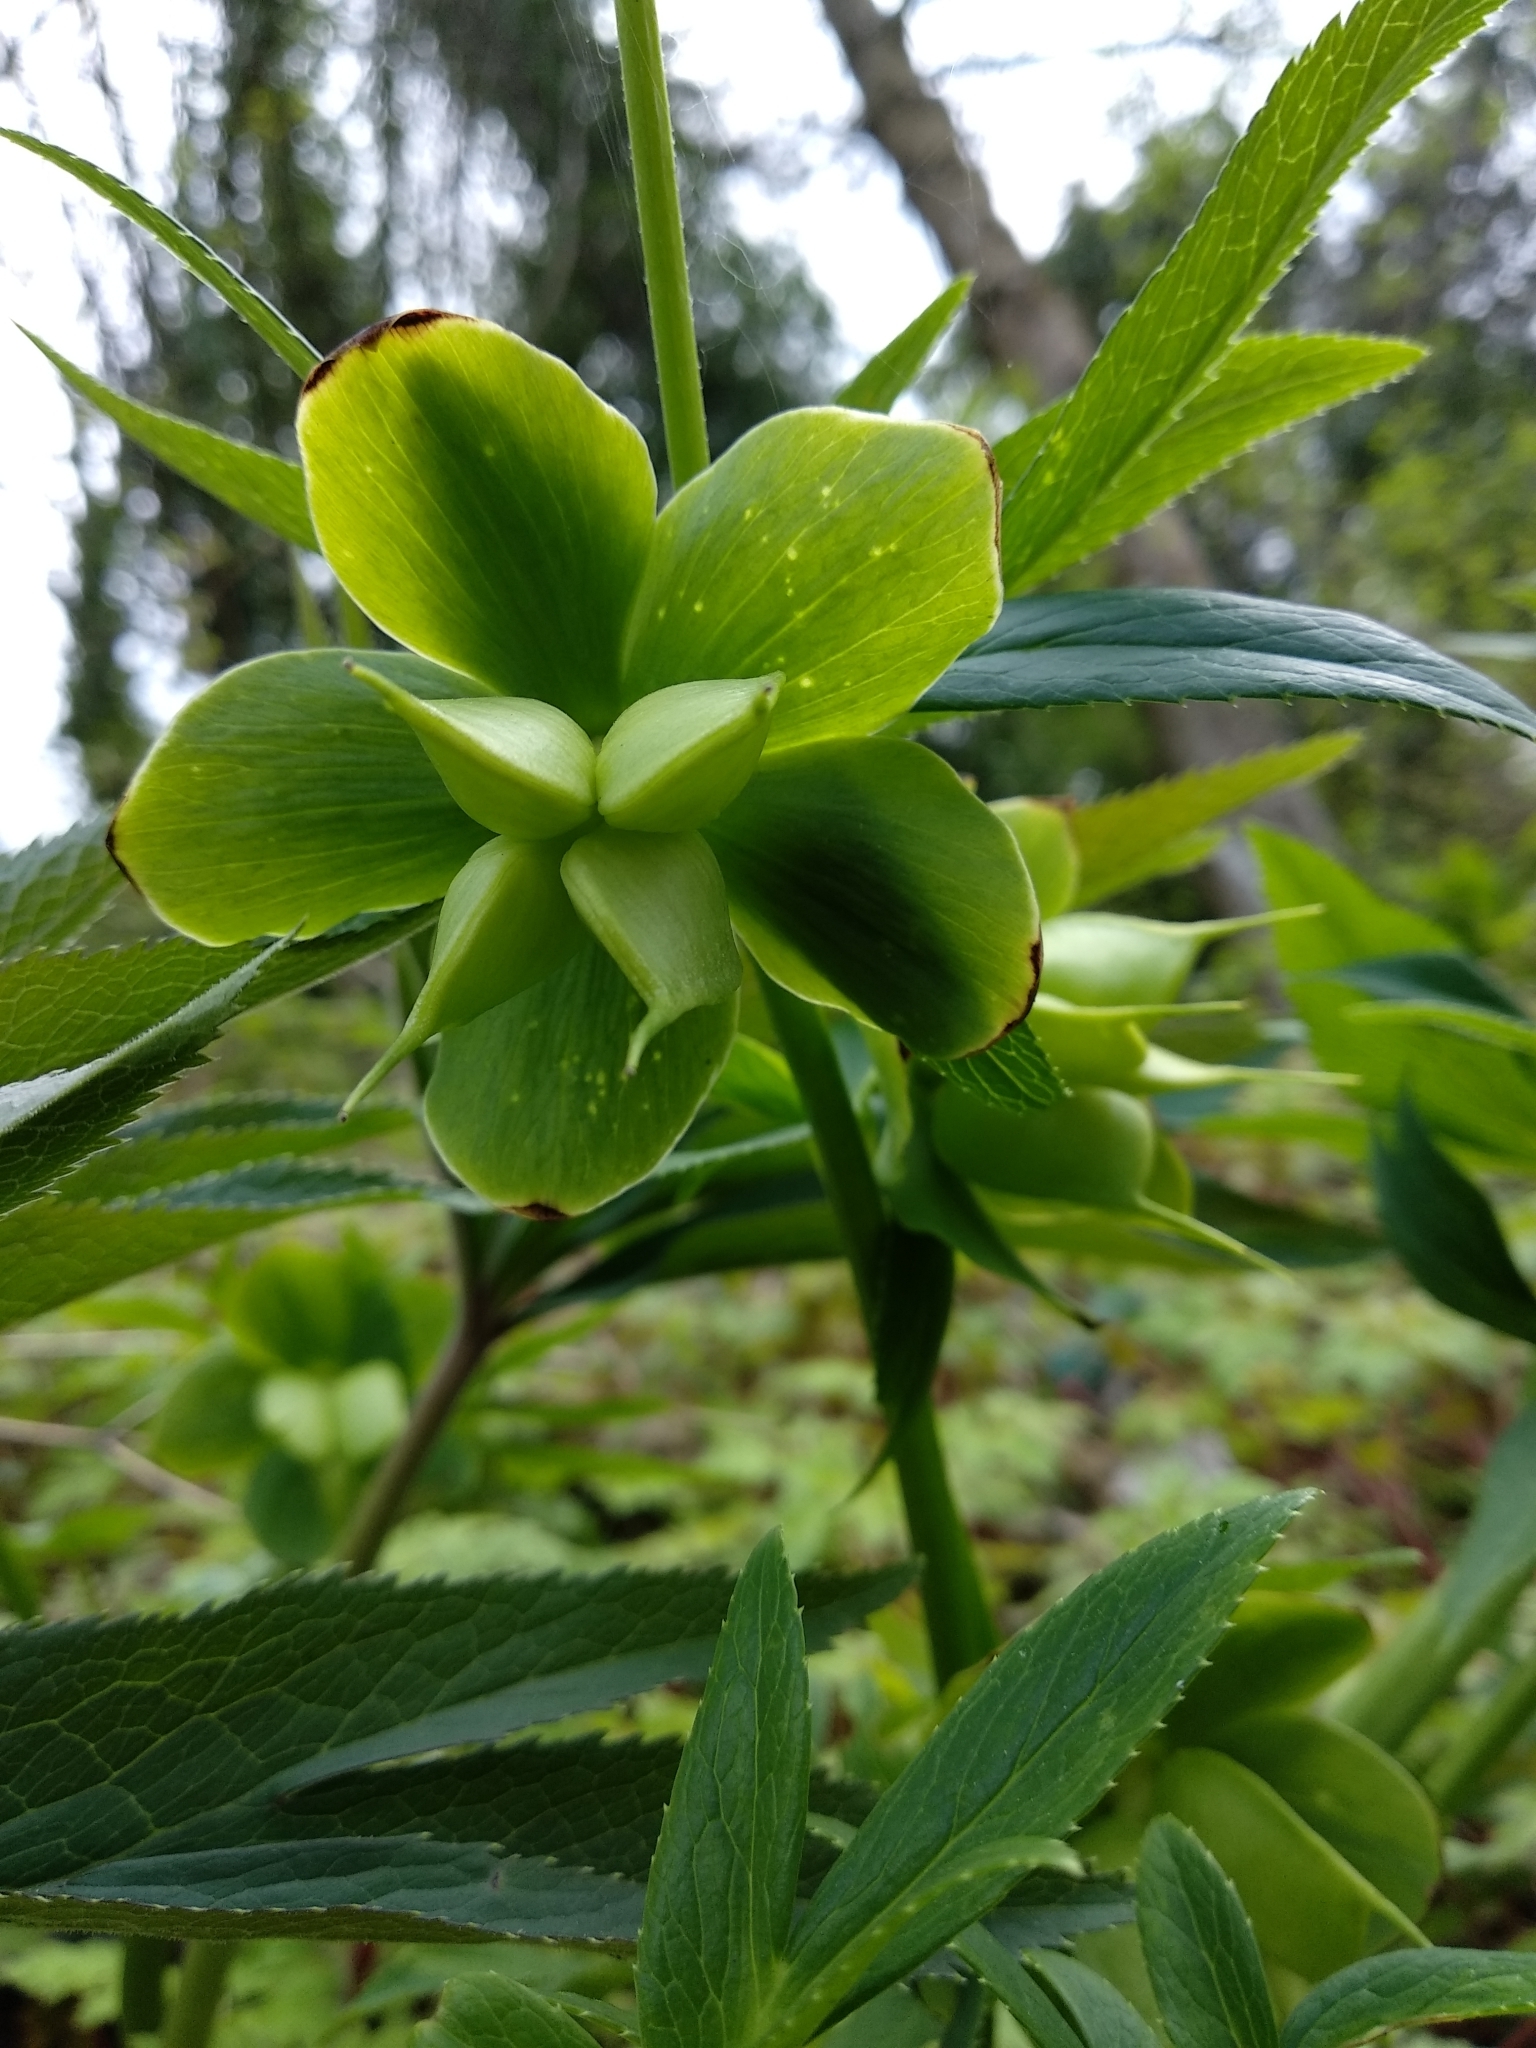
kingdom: Plantae
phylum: Tracheophyta
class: Magnoliopsida
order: Ranunculales
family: Ranunculaceae
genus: Helleborus
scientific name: Helleborus viridis
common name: Green hellebore
